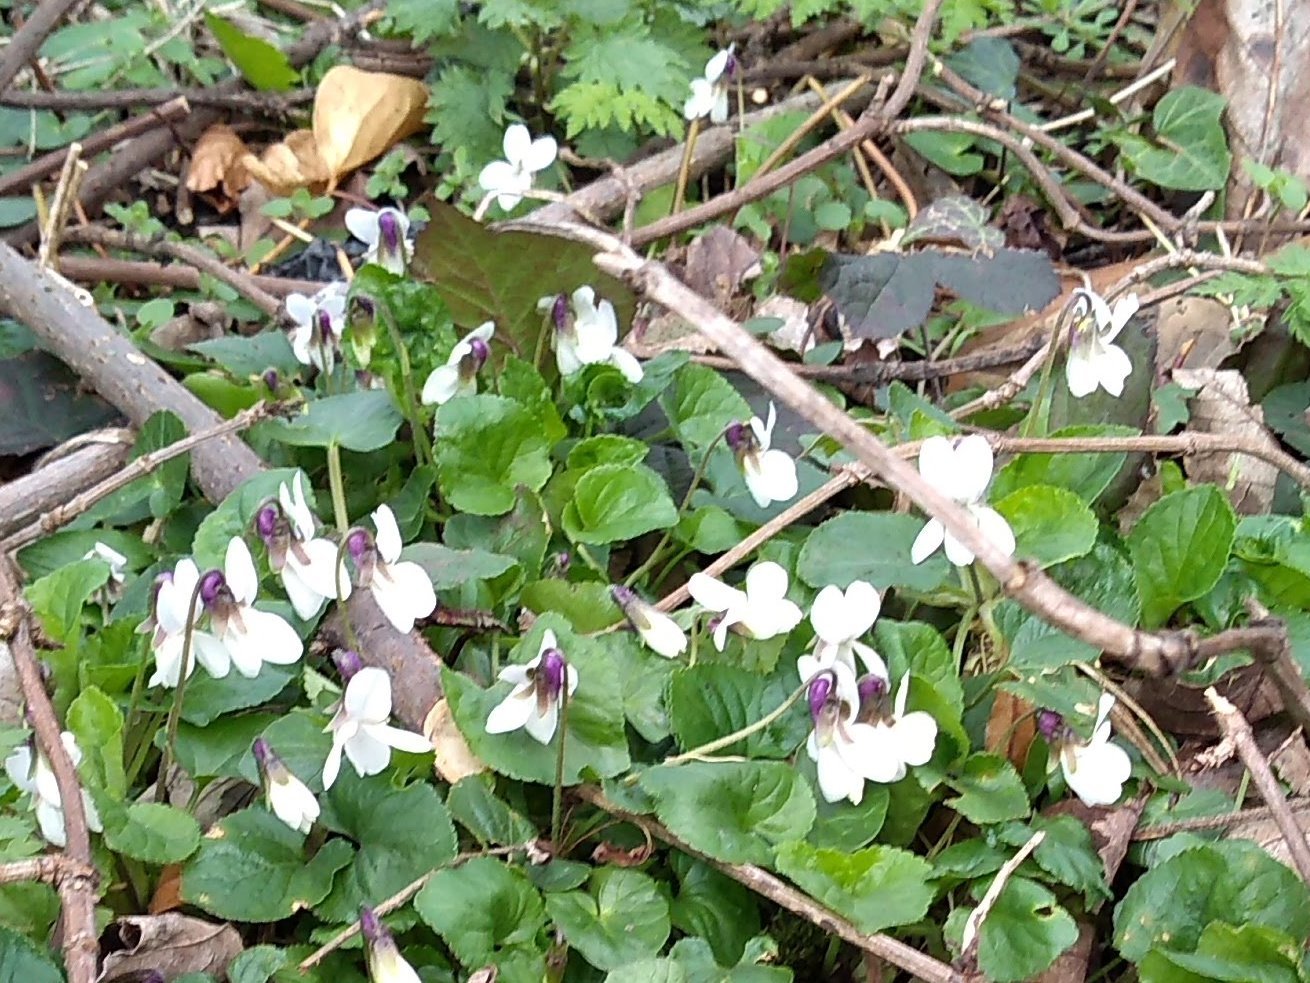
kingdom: Plantae
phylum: Tracheophyta
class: Magnoliopsida
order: Malpighiales
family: Violaceae
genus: Viola
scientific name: Viola odorata
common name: Sweet violet
